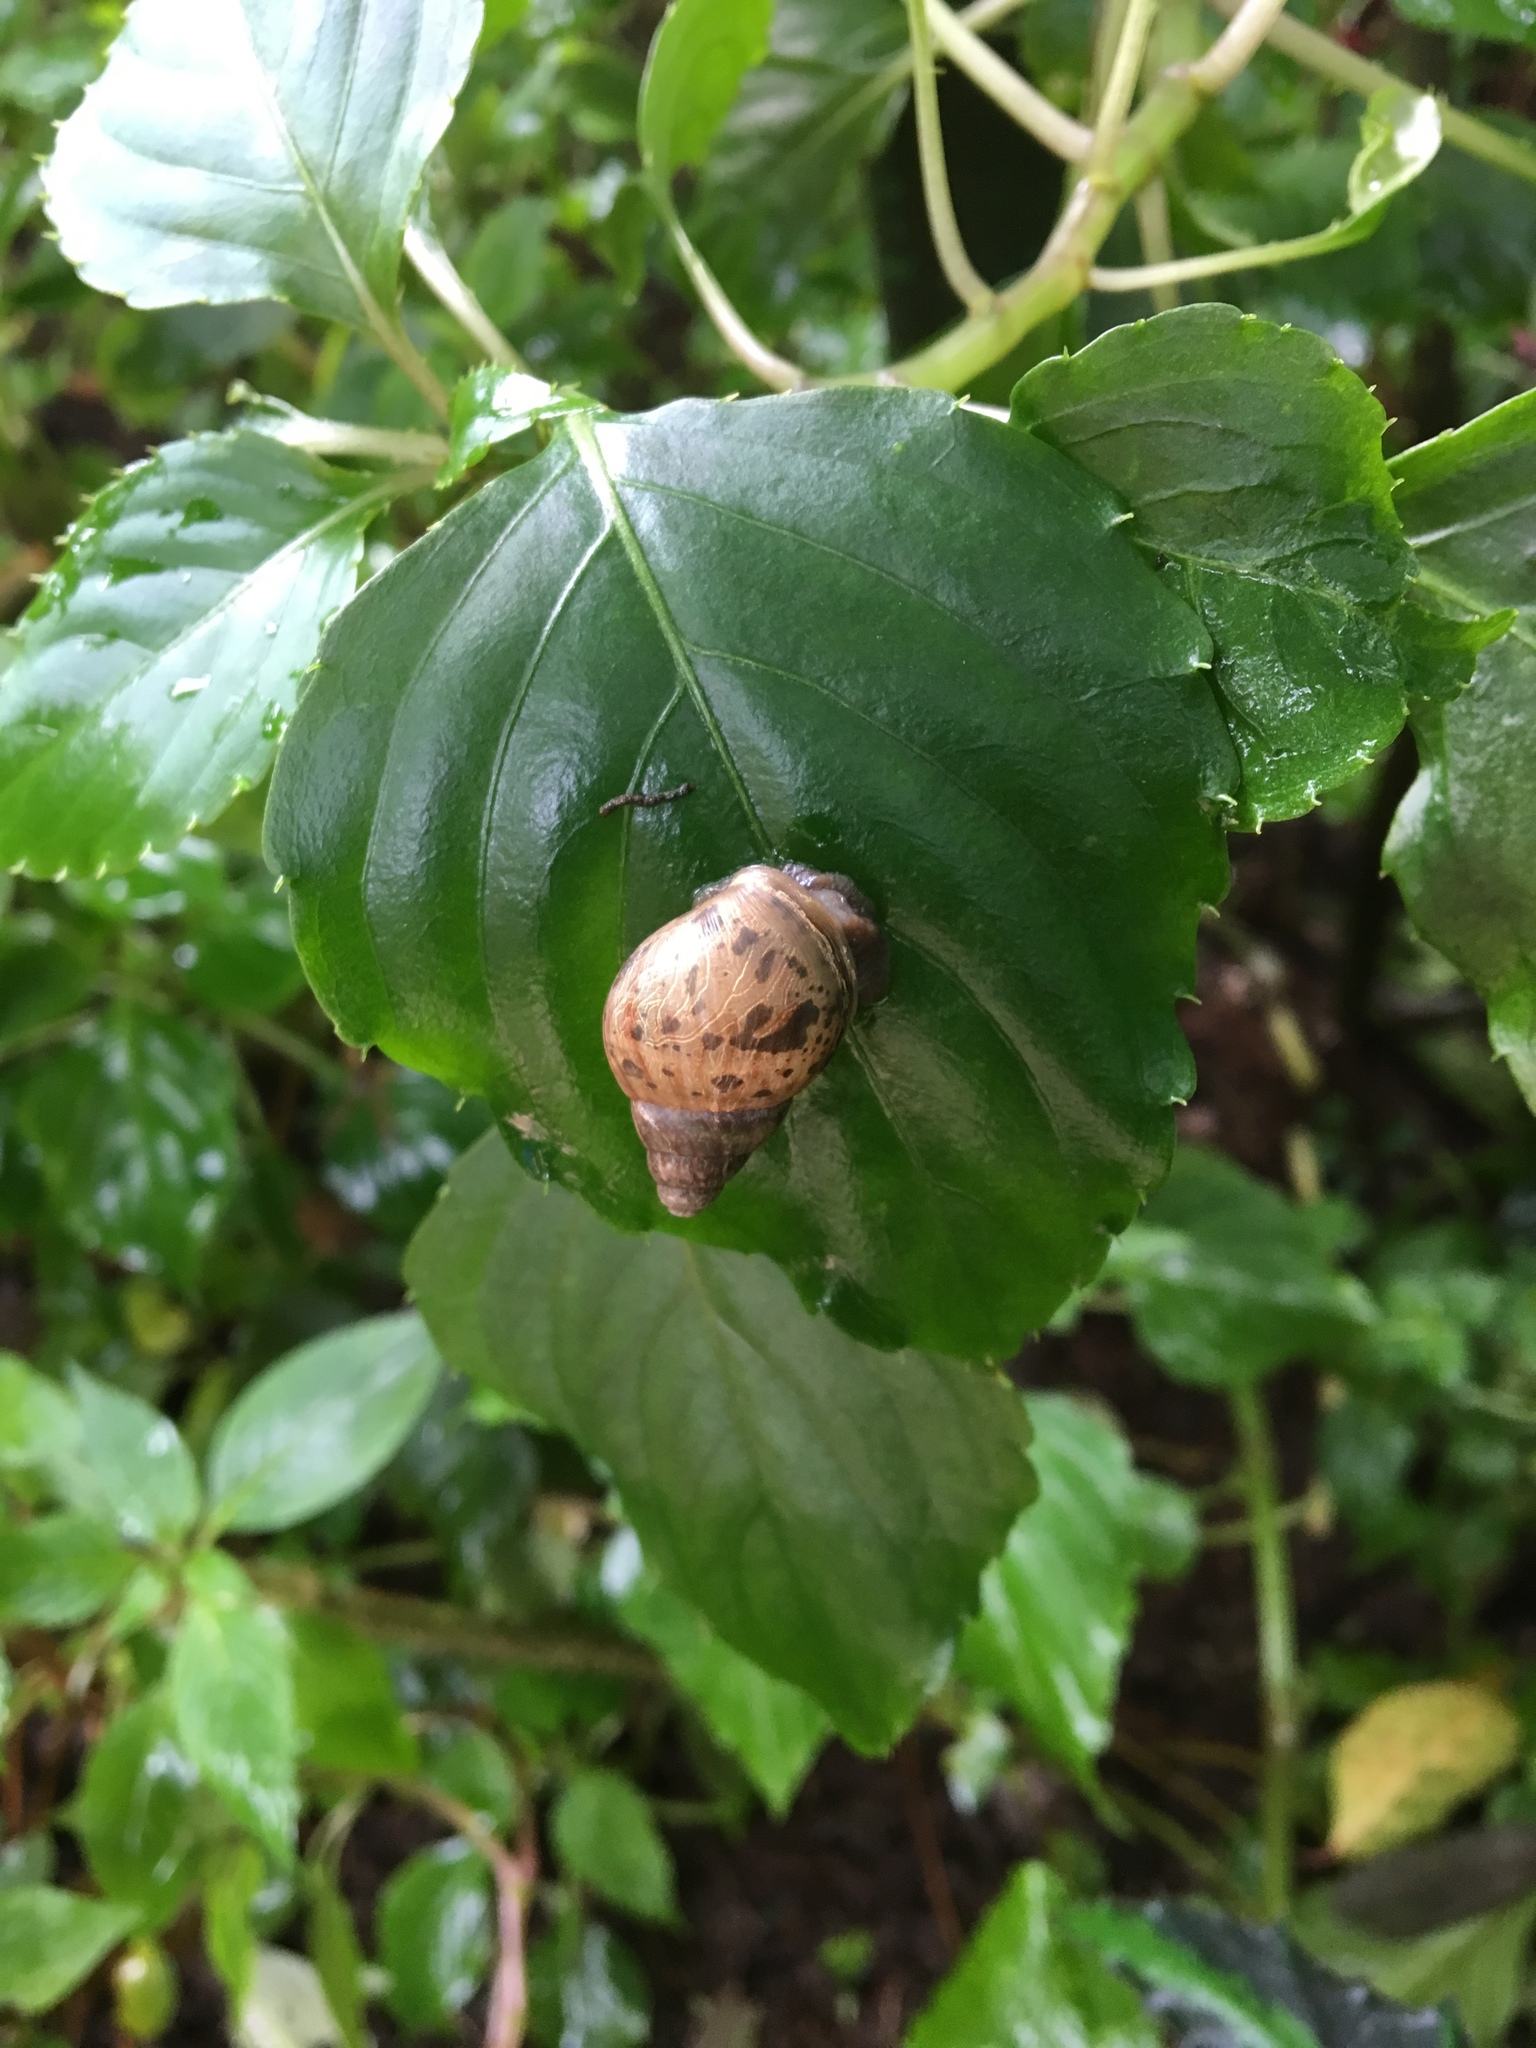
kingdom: Animalia
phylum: Mollusca
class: Gastropoda
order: Stylommatophora
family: Achatinidae
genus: Lissachatina
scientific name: Lissachatina fulica
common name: Giant african snail
